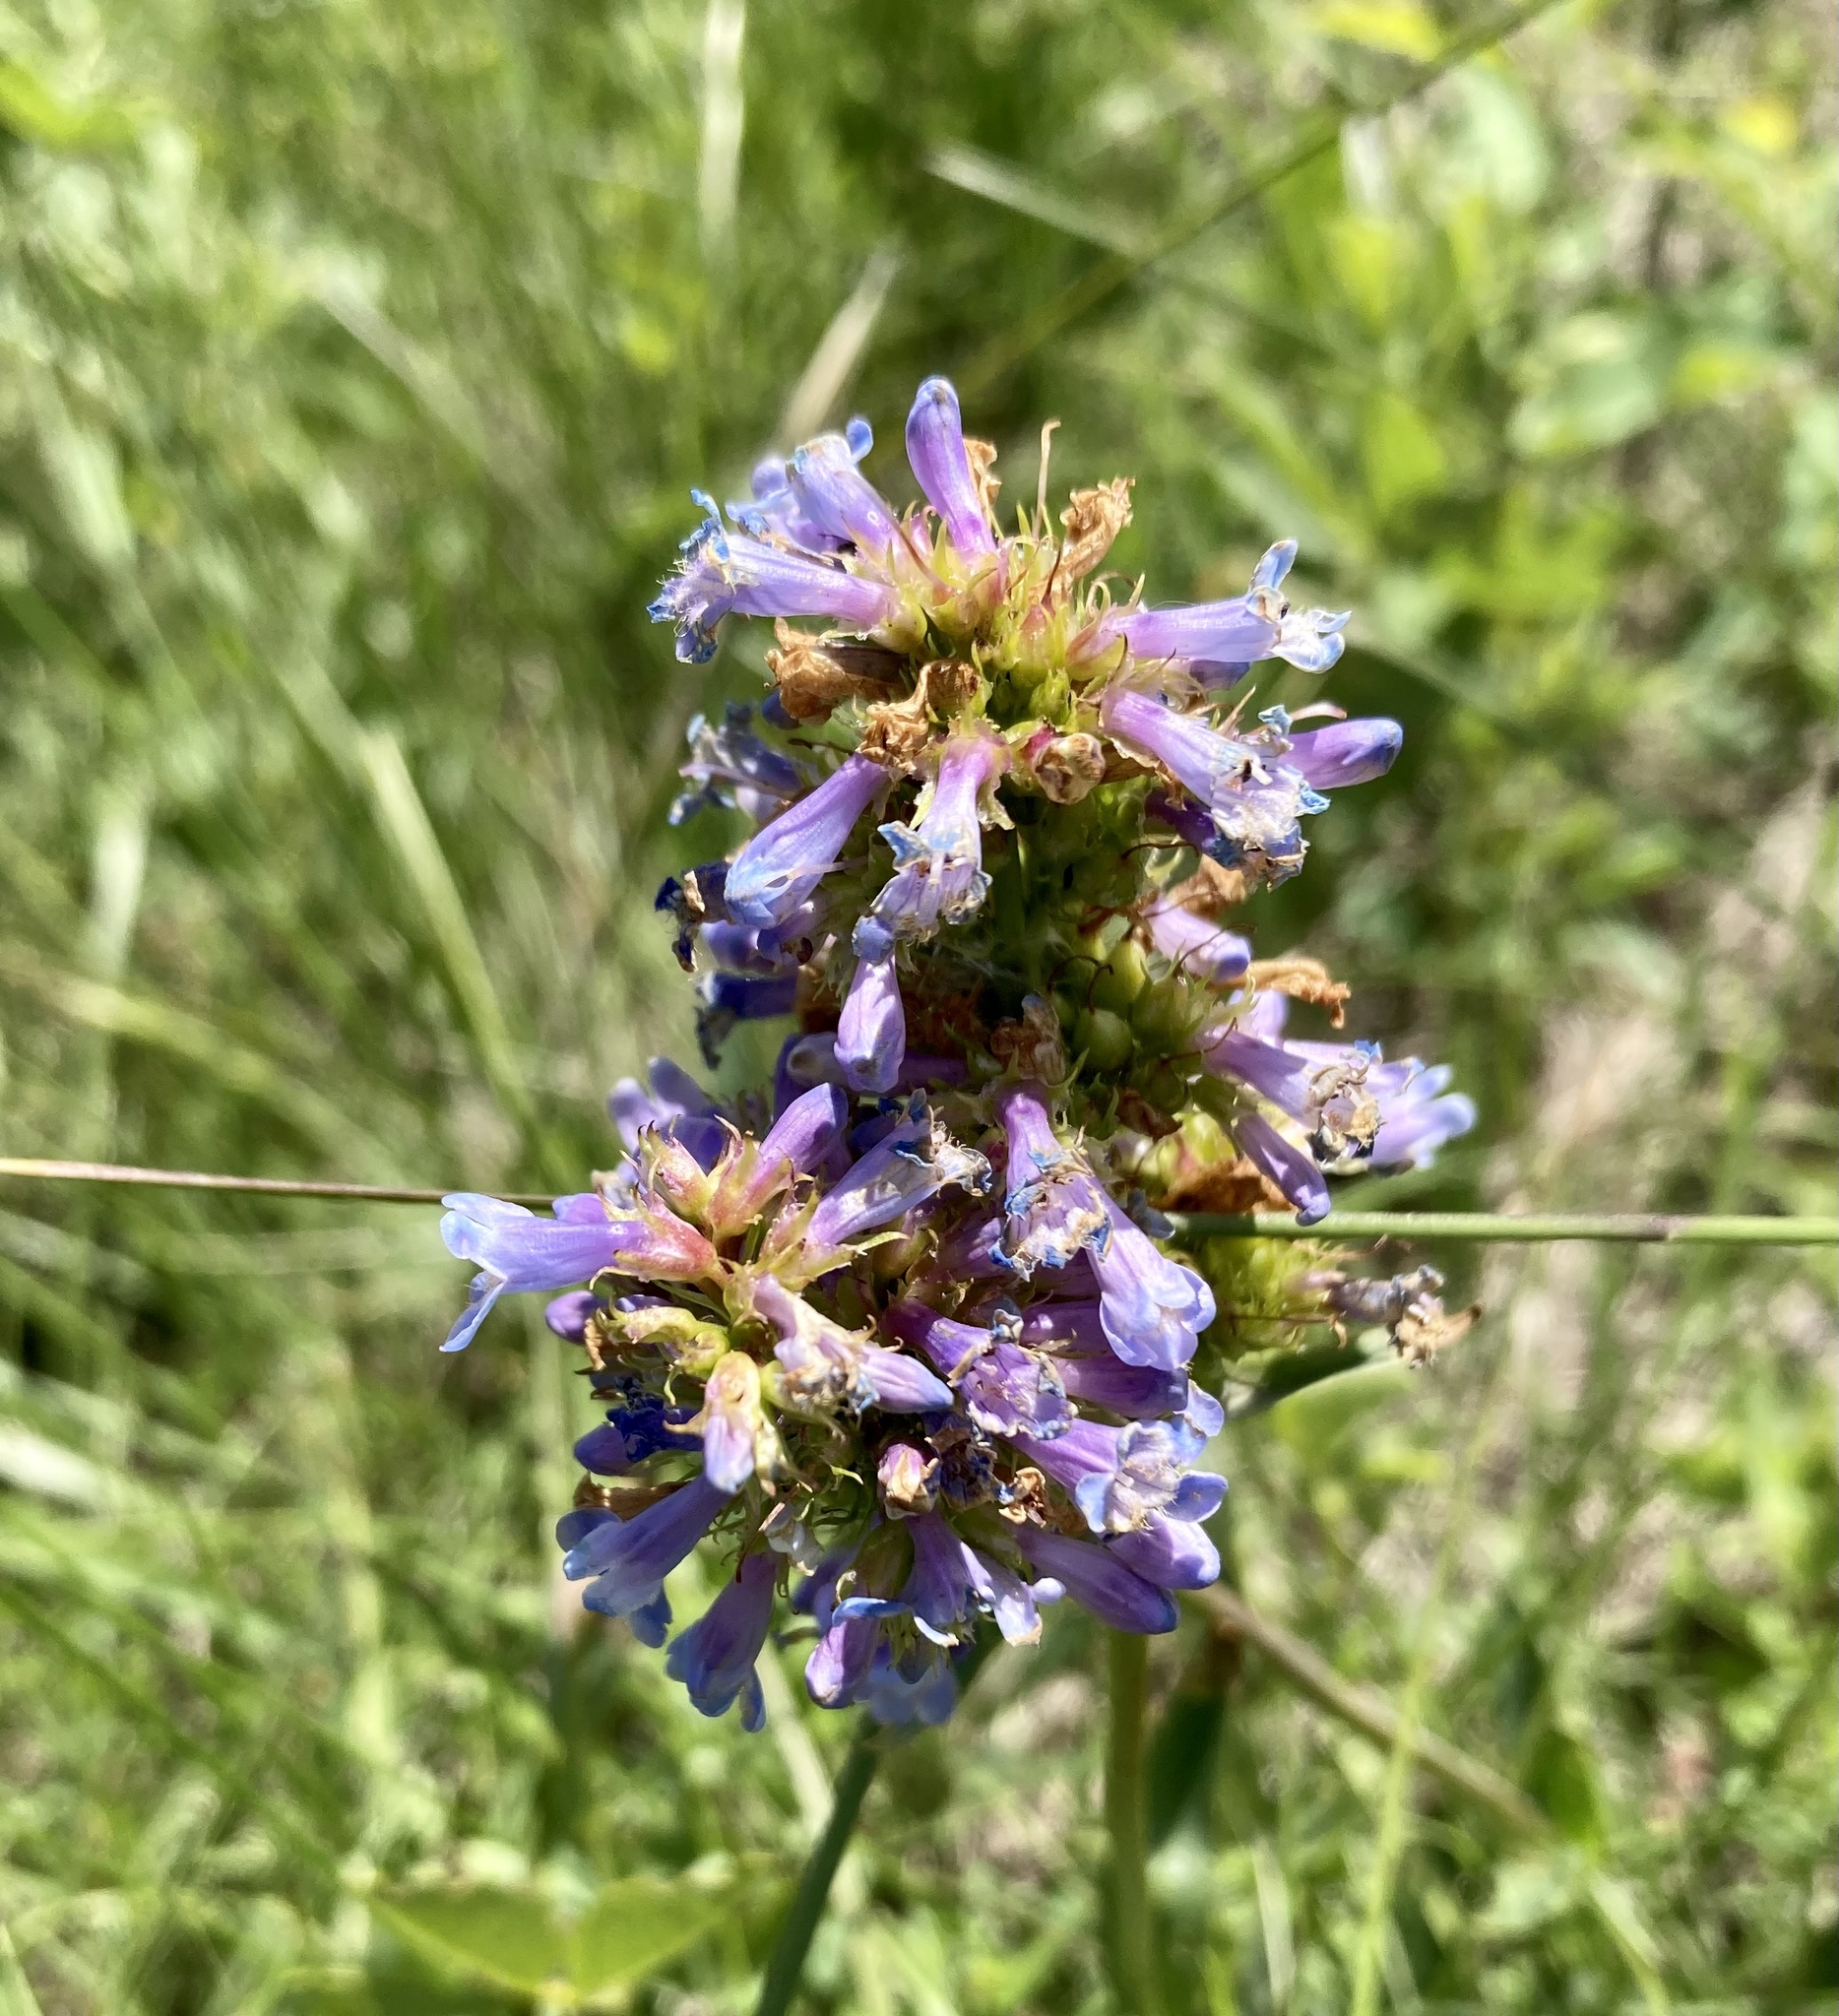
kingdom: Plantae
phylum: Tracheophyta
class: Magnoliopsida
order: Lamiales
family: Plantaginaceae
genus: Penstemon
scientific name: Penstemon procerus
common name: Small-flower penstemon
